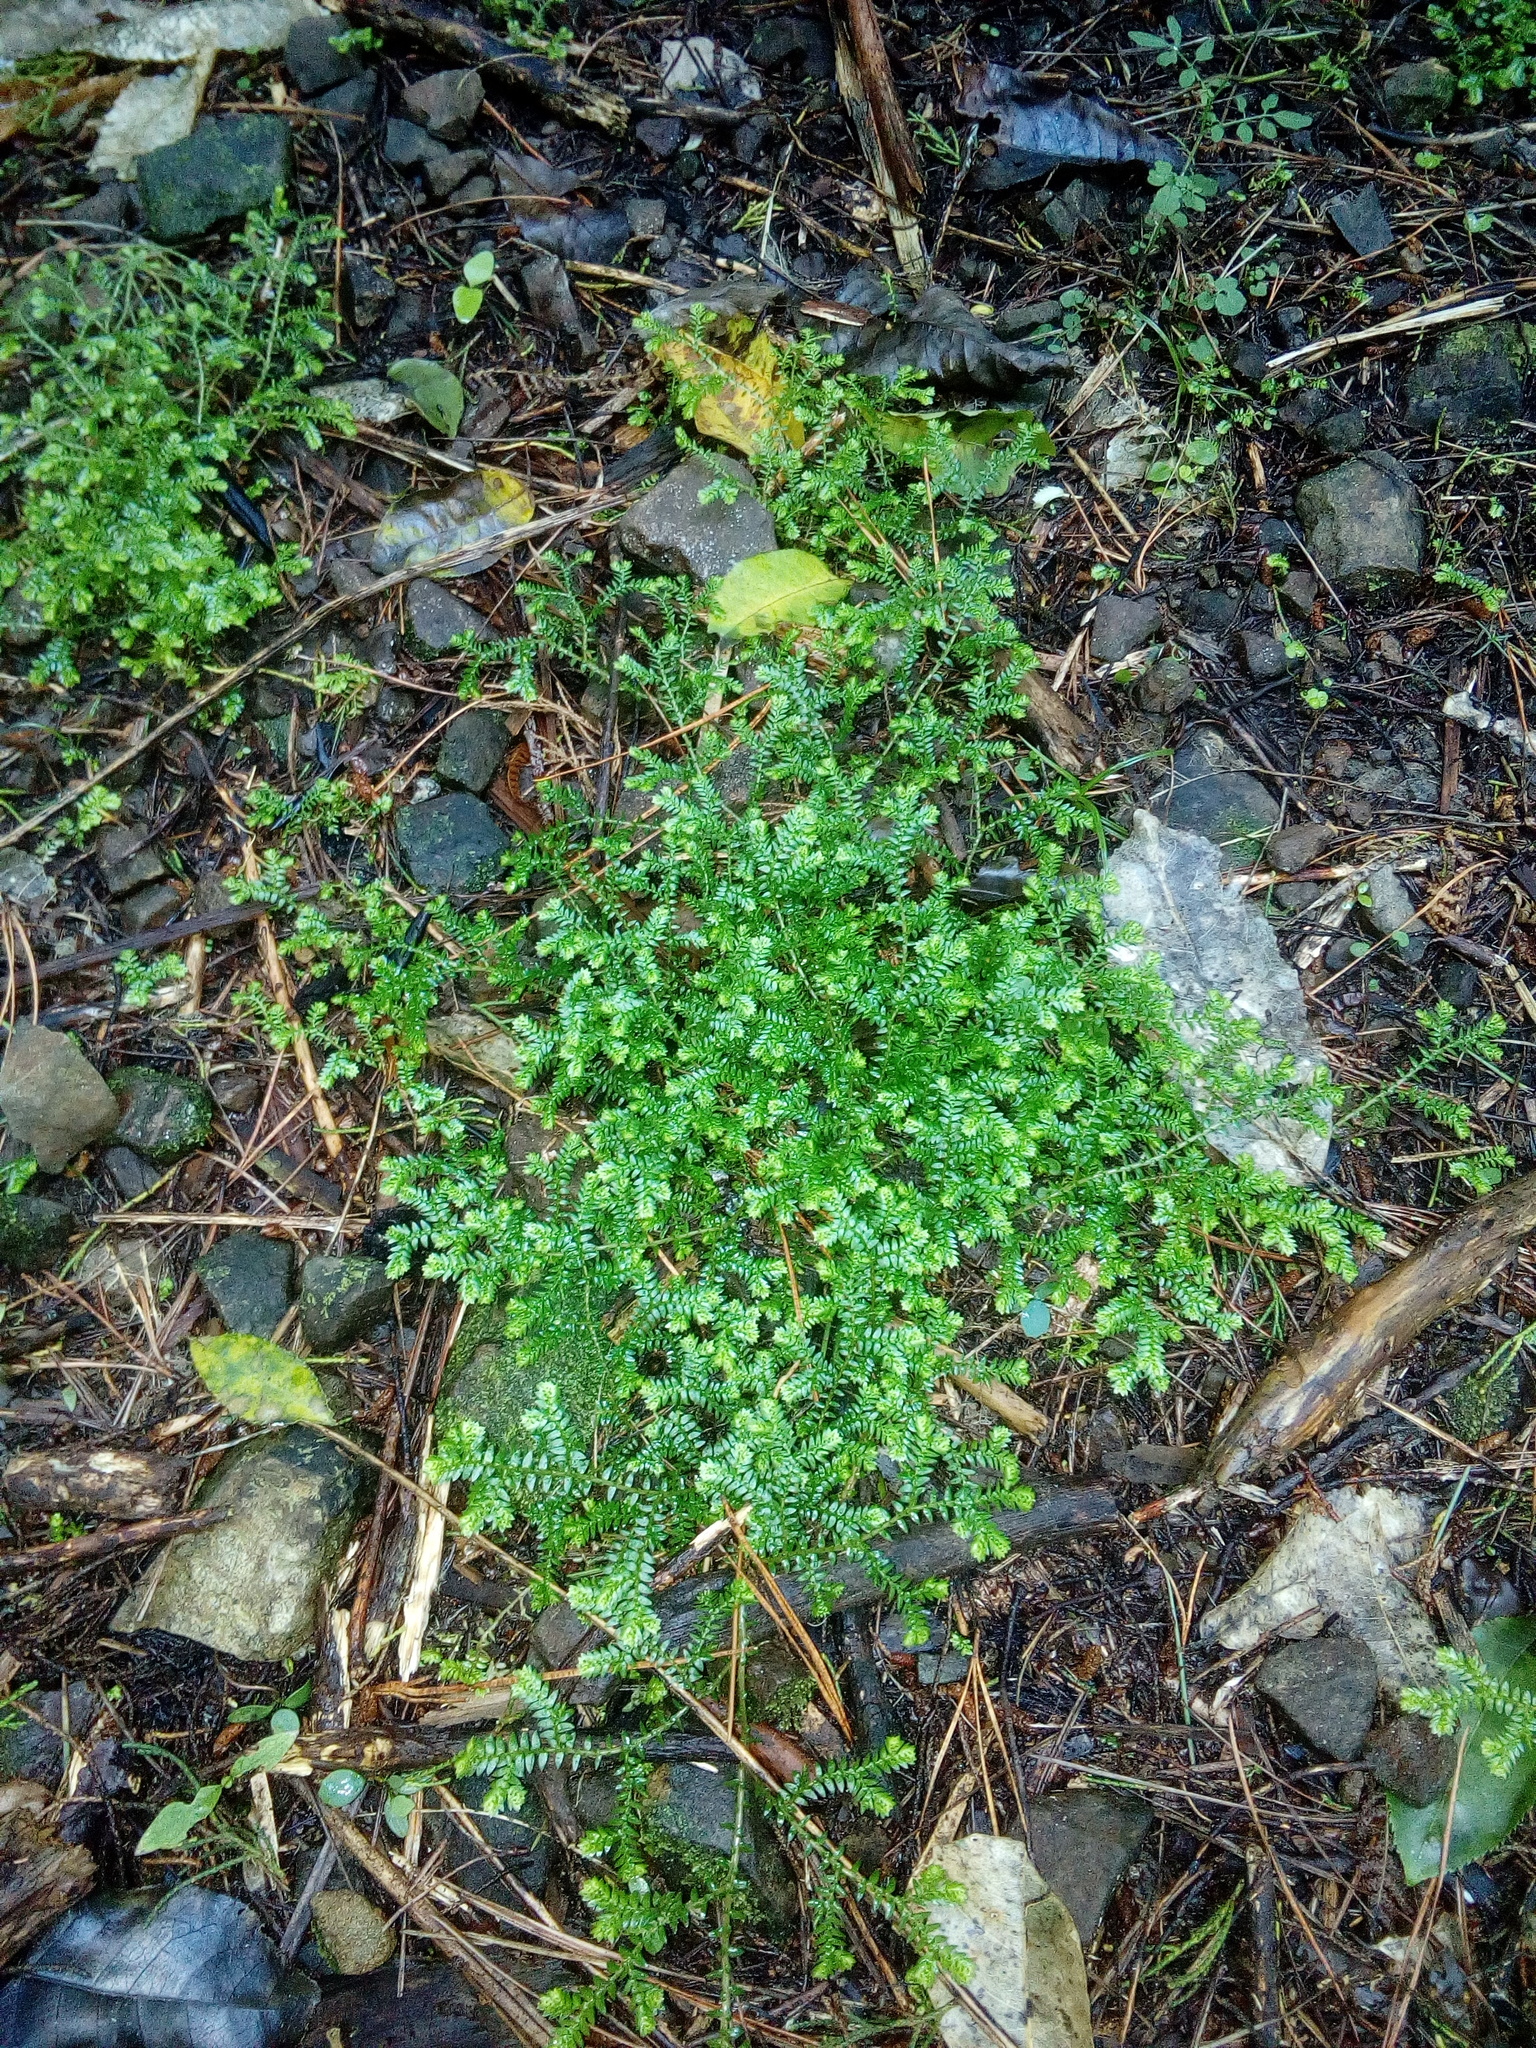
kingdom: Plantae
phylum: Tracheophyta
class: Lycopodiopsida
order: Selaginellales
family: Selaginellaceae
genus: Selaginella
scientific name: Selaginella kraussiana
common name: Krauss' spikemoss
